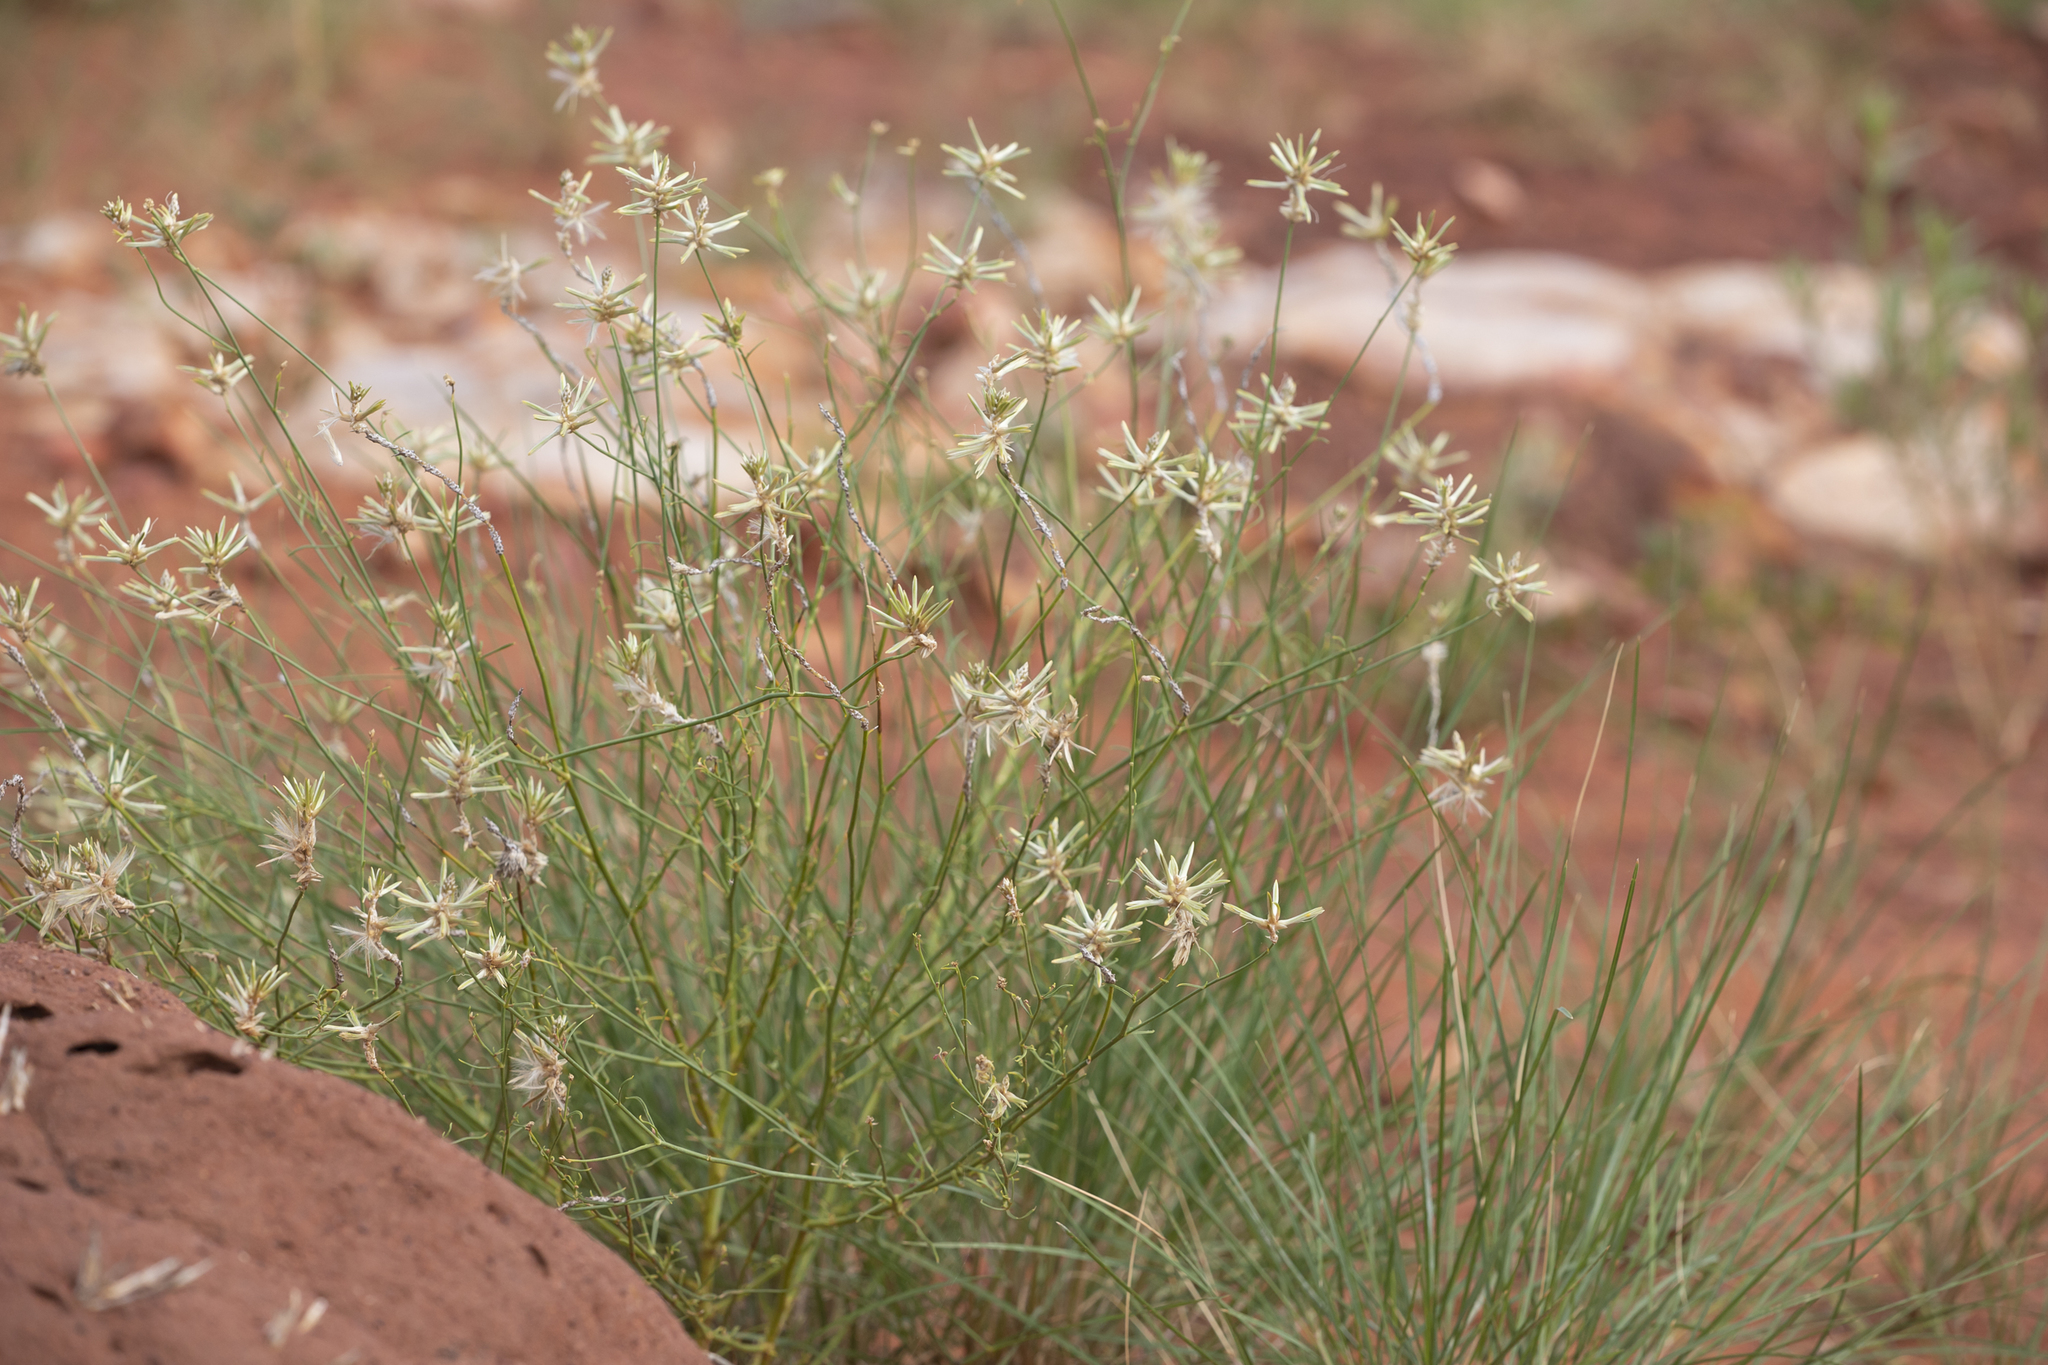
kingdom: Plantae
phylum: Tracheophyta
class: Magnoliopsida
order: Caryophyllales
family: Amaranthaceae
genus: Ptilotus
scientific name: Ptilotus fusiformis
